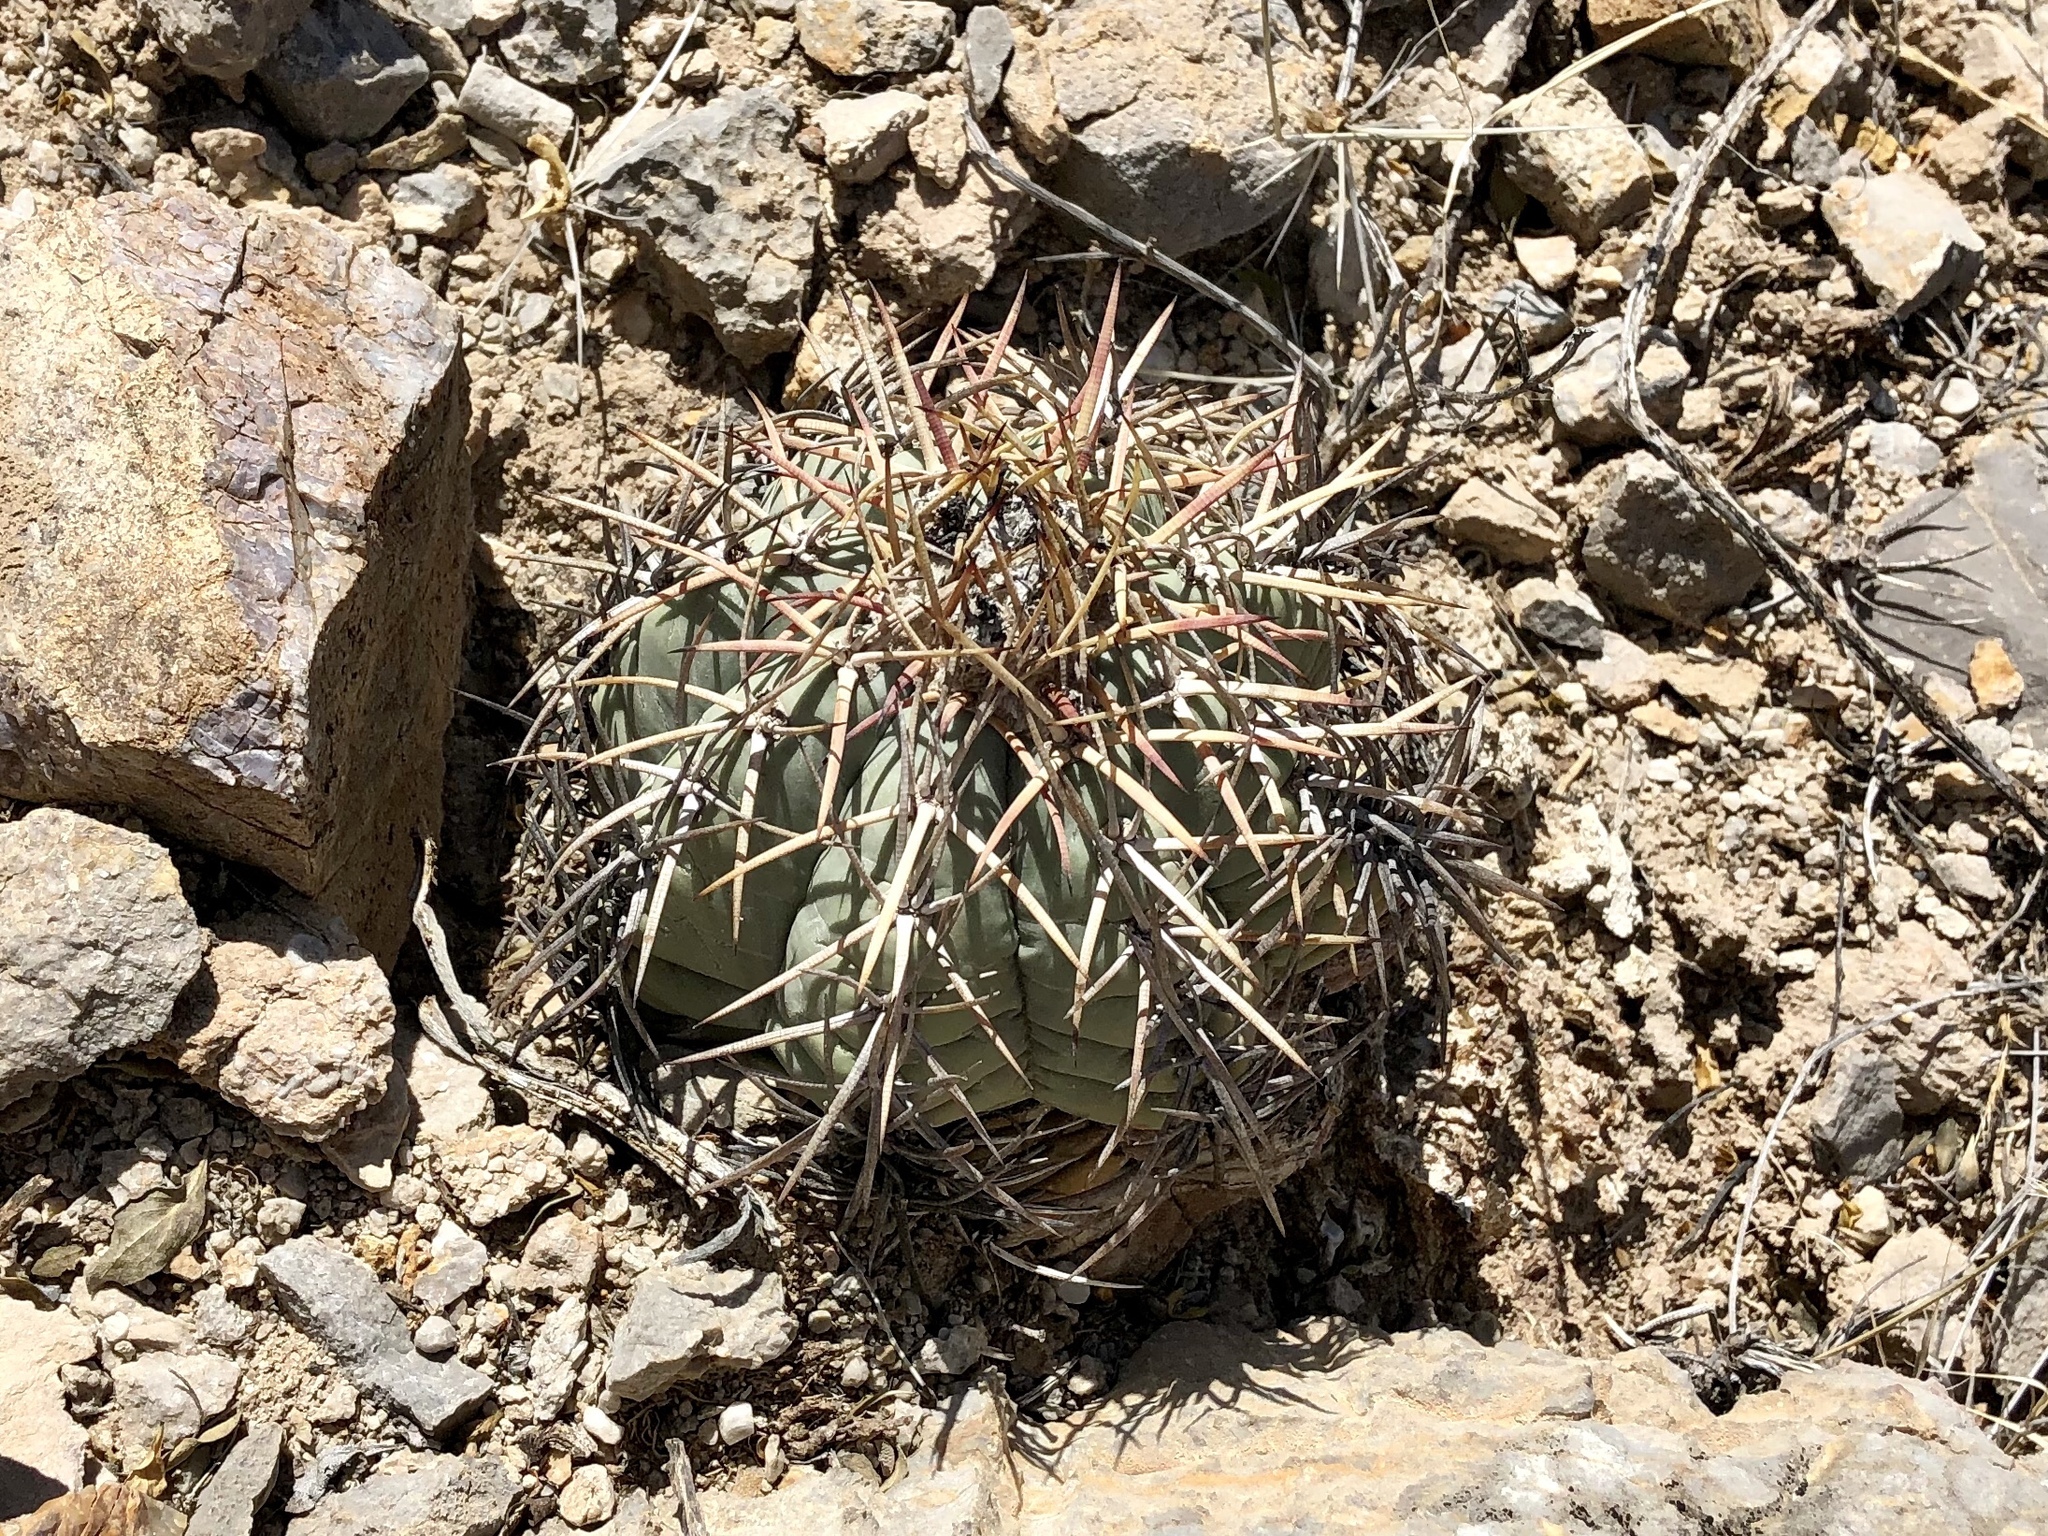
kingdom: Plantae
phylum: Tracheophyta
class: Magnoliopsida
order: Caryophyllales
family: Cactaceae
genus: Echinocactus
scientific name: Echinocactus horizonthalonius
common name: Devilshead
